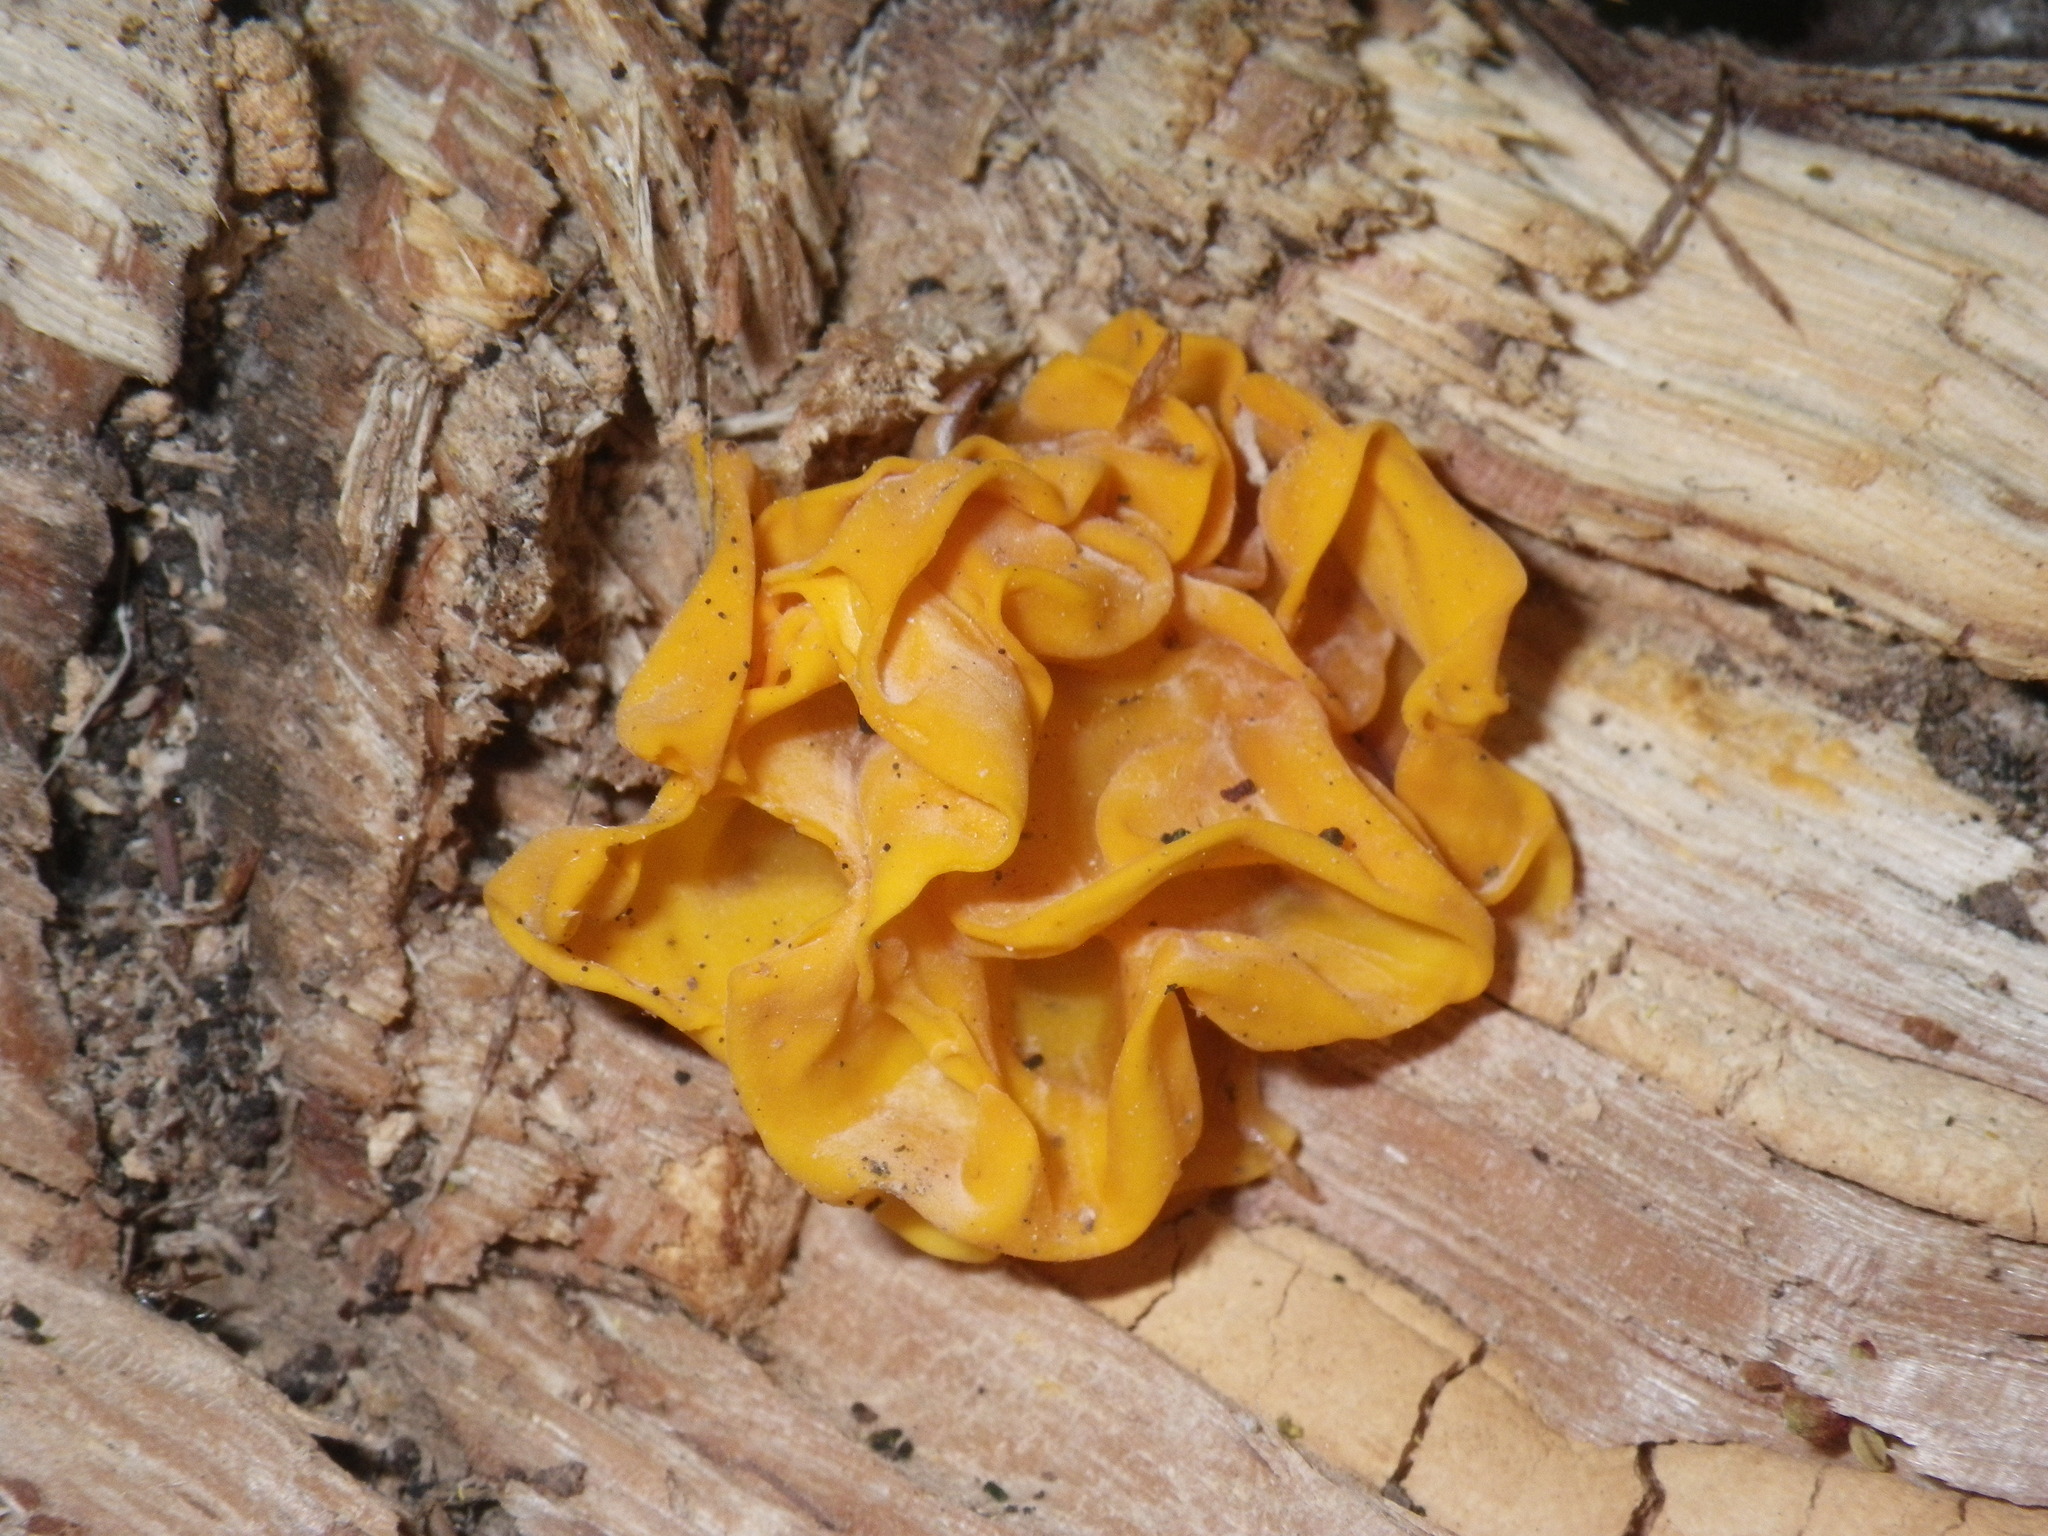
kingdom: Fungi
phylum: Basidiomycota
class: Tremellomycetes
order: Tremellales
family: Naemateliaceae
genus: Naematelia
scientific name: Naematelia aurantia
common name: Golden ear
